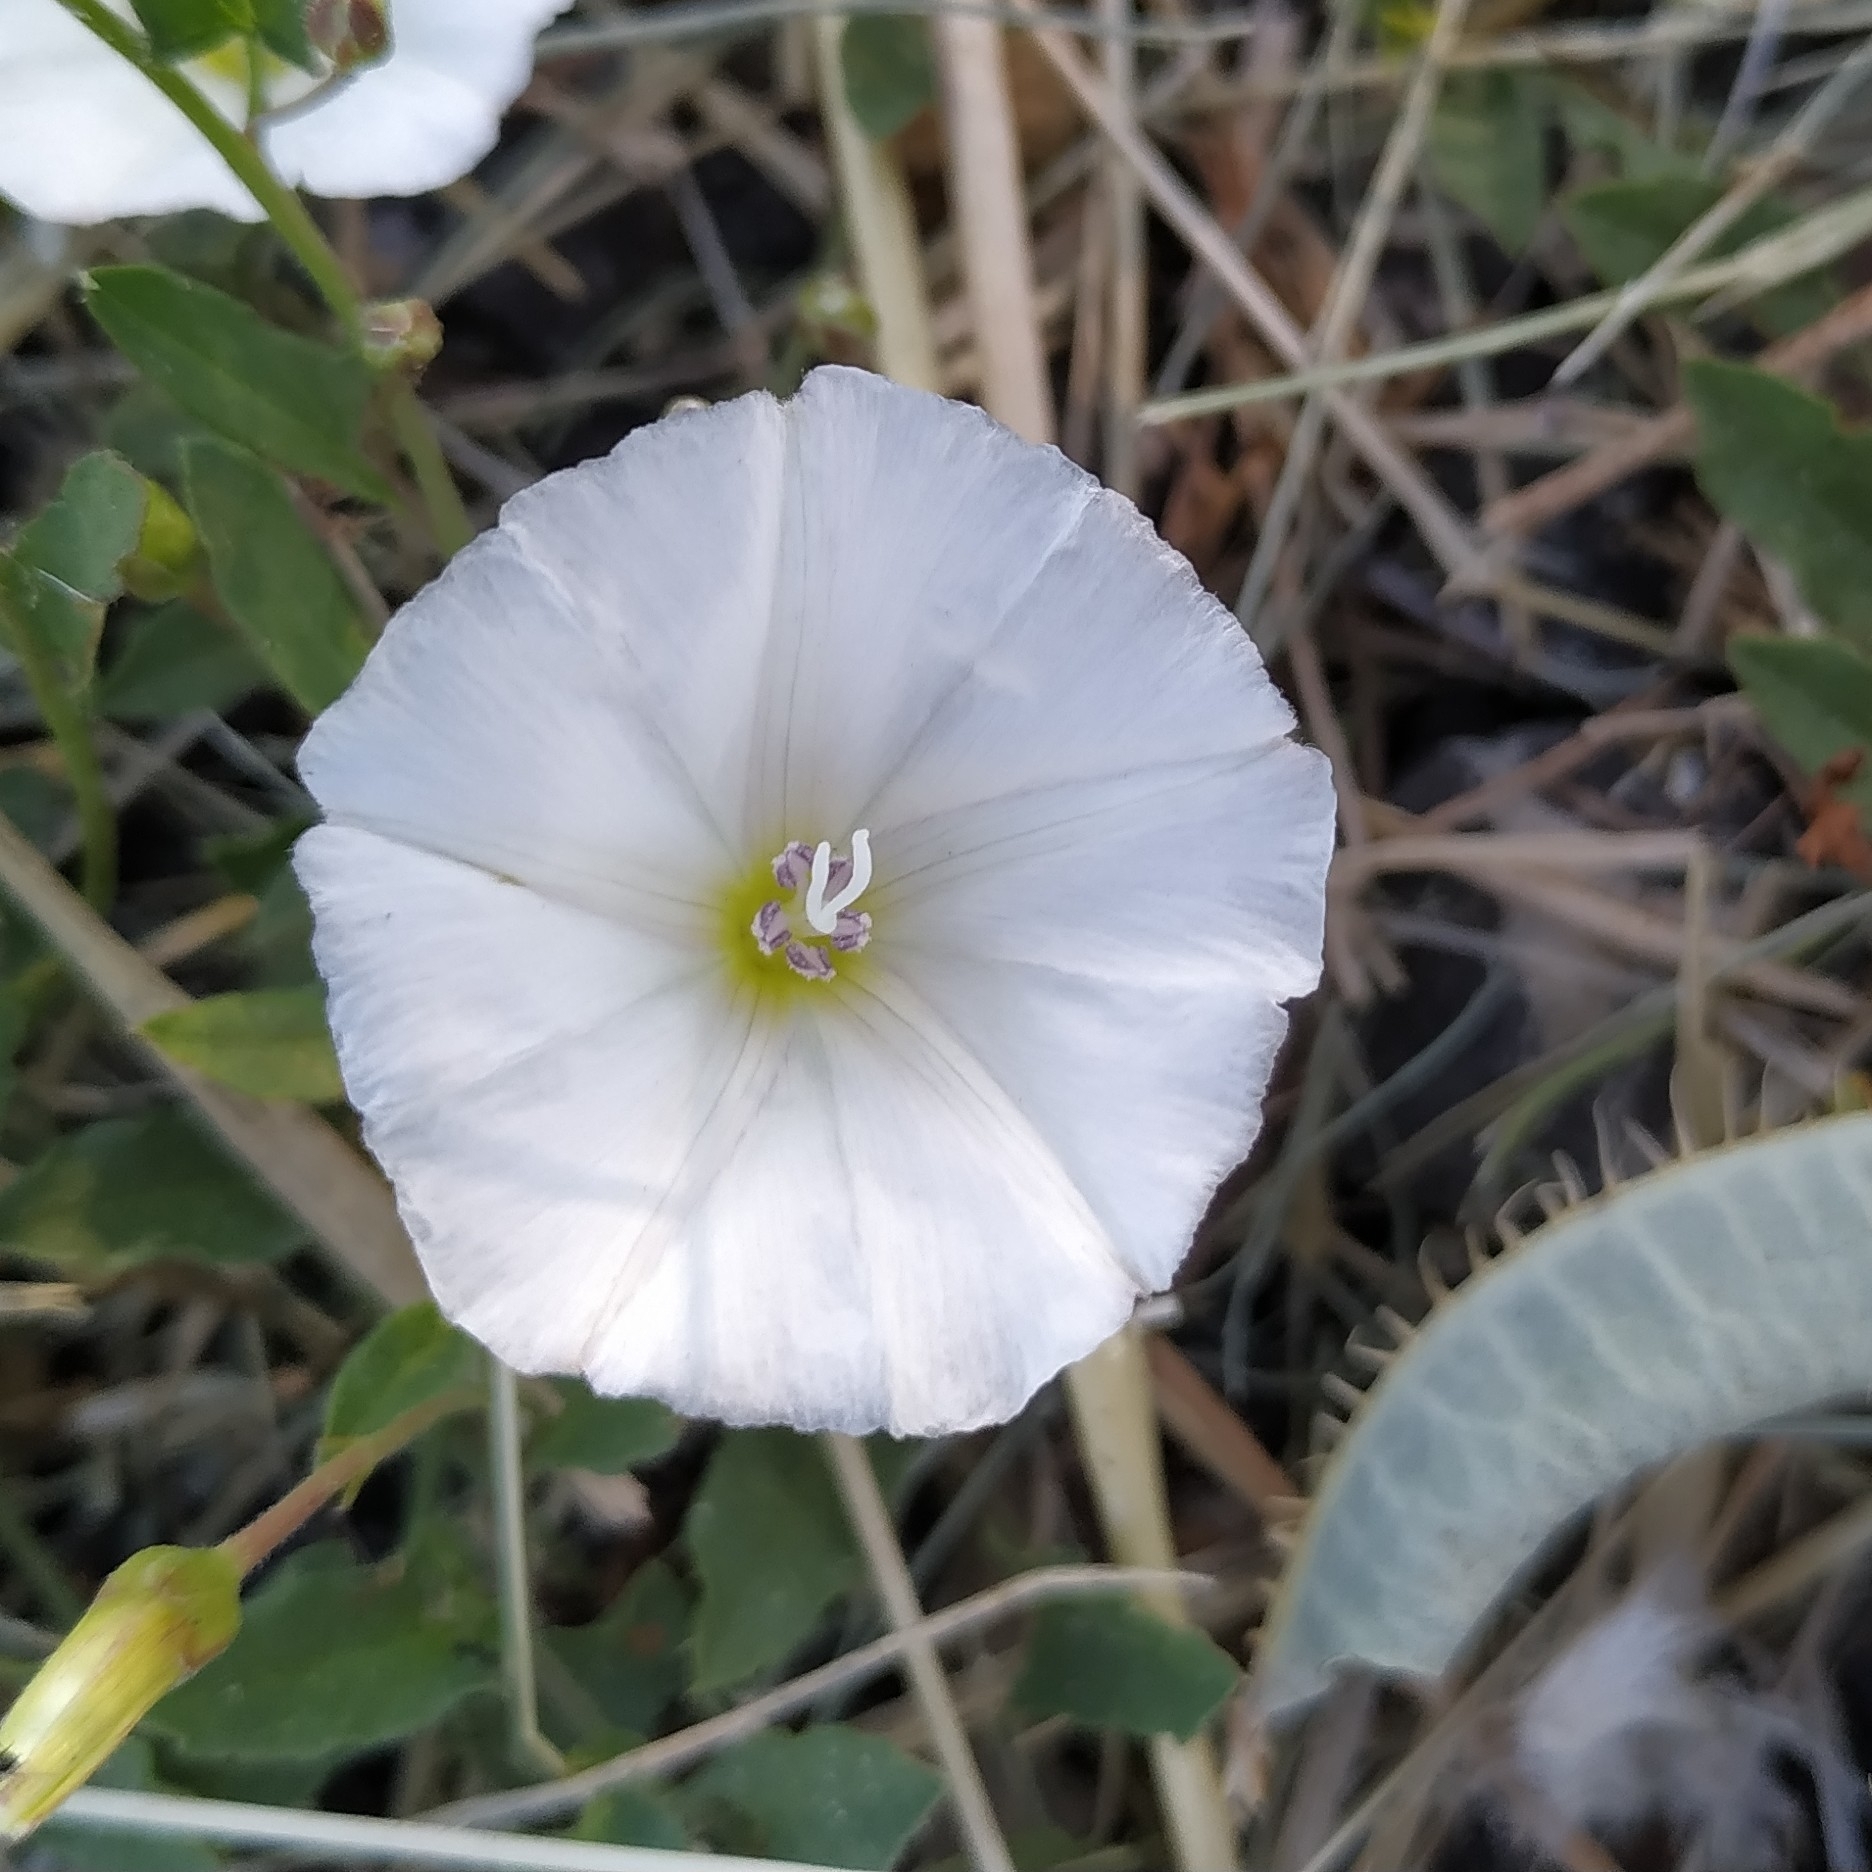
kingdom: Plantae
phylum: Tracheophyta
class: Magnoliopsida
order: Solanales
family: Convolvulaceae
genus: Convolvulus
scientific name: Convolvulus arvensis
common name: Field bindweed
